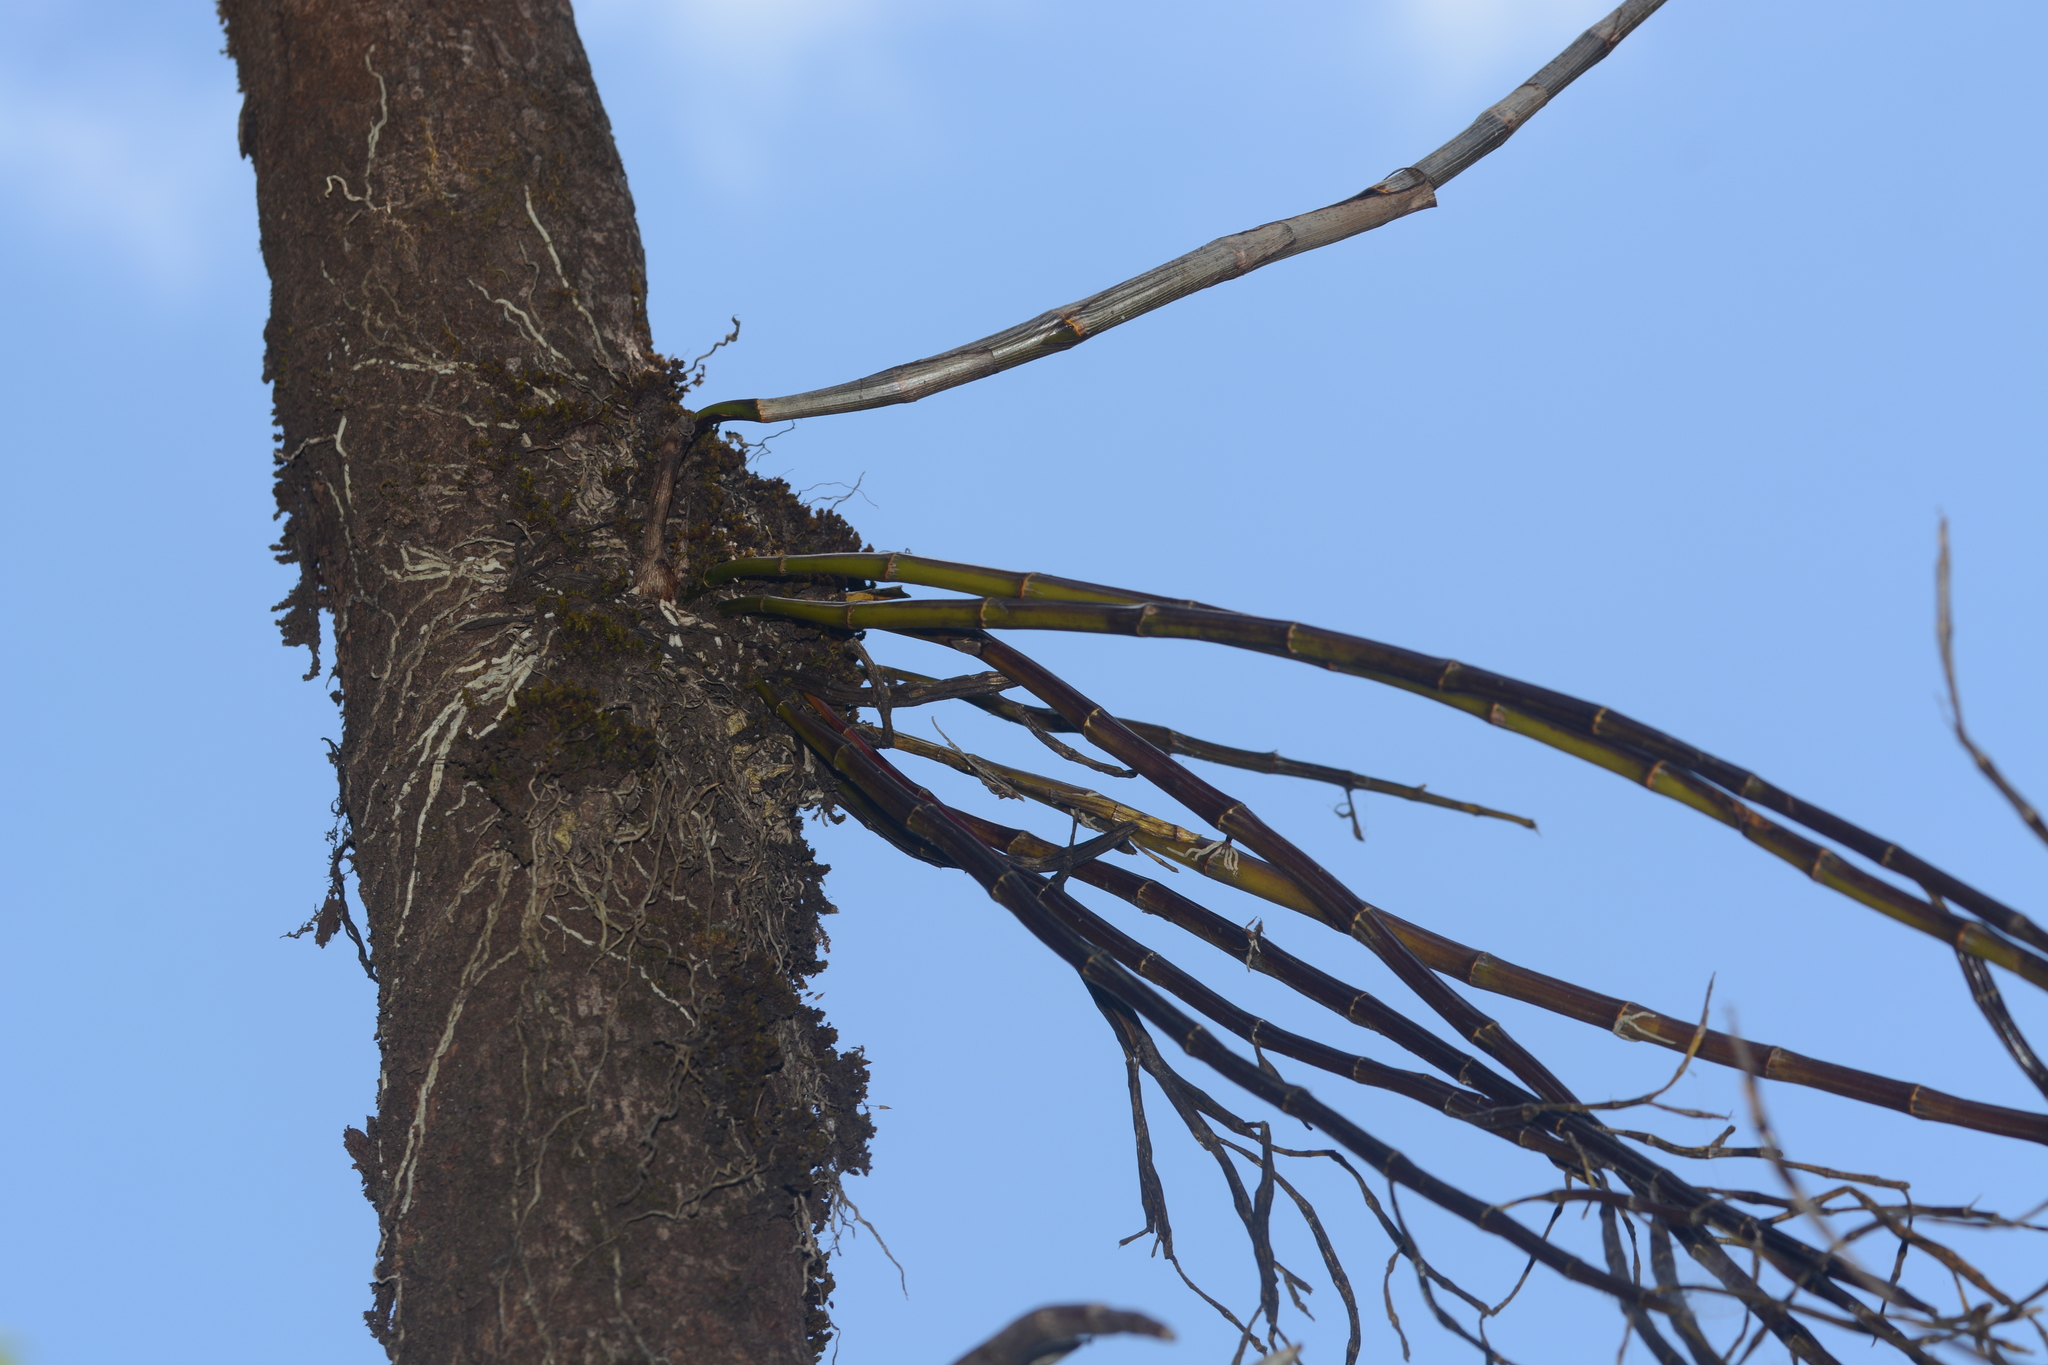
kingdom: Plantae
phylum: Tracheophyta
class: Liliopsida
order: Asparagales
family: Orchidaceae
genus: Dendrobium
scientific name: Dendrobium herbaceum
